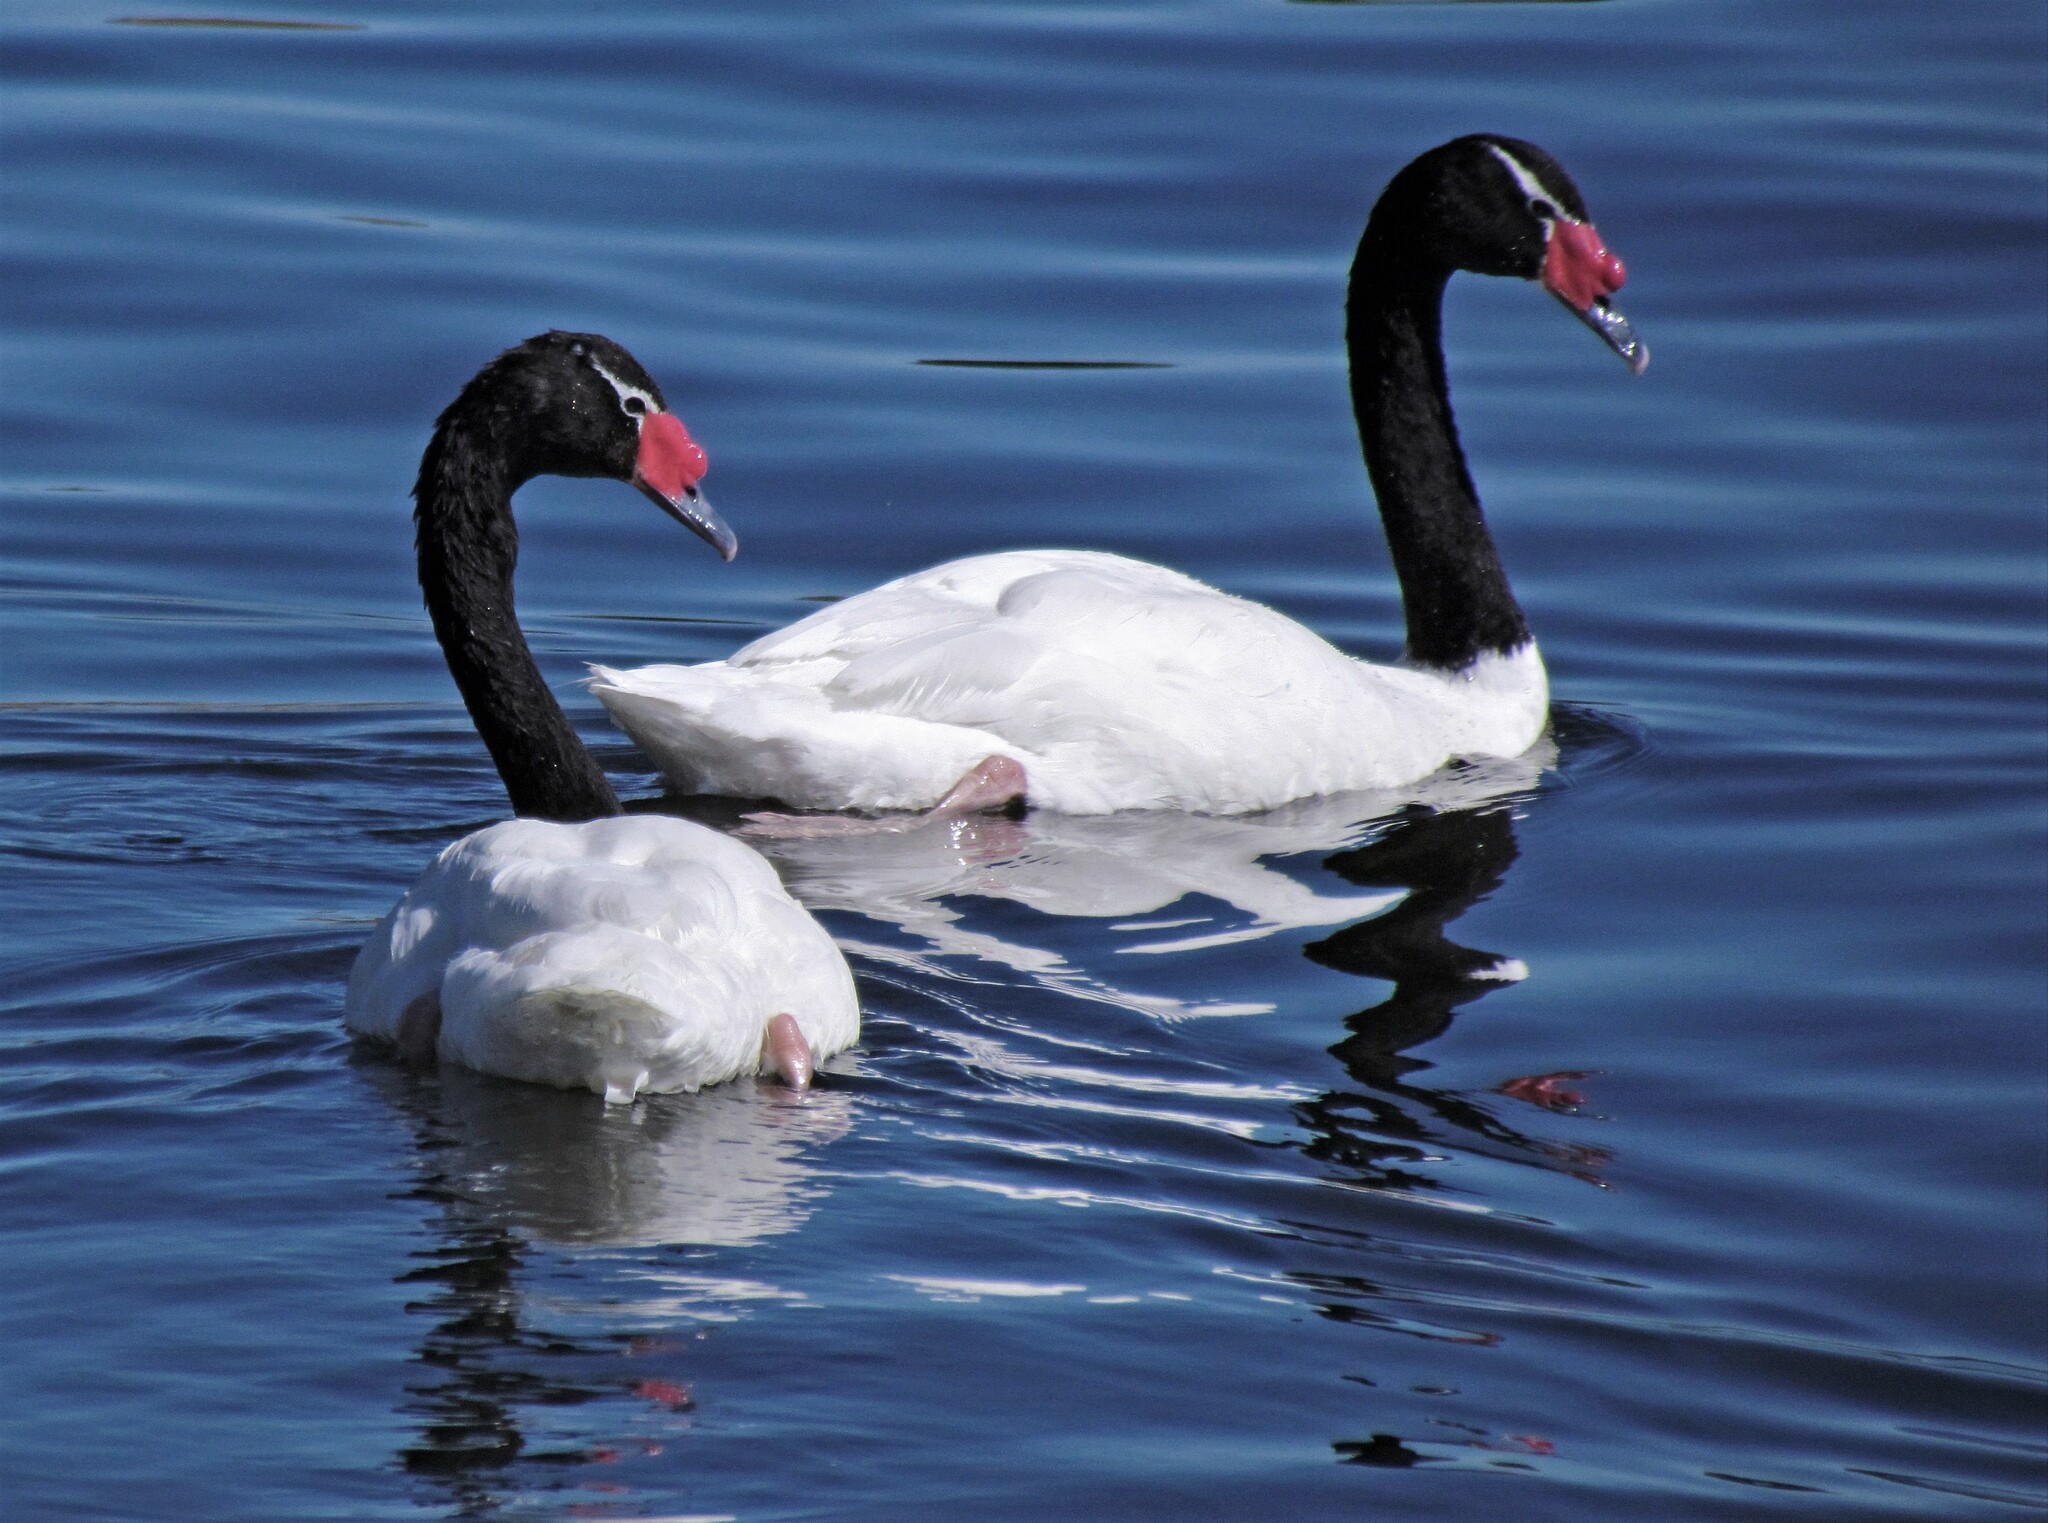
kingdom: Animalia
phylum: Chordata
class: Aves
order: Anseriformes
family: Anatidae
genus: Cygnus
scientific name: Cygnus melancoryphus
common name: Black-necked swan
